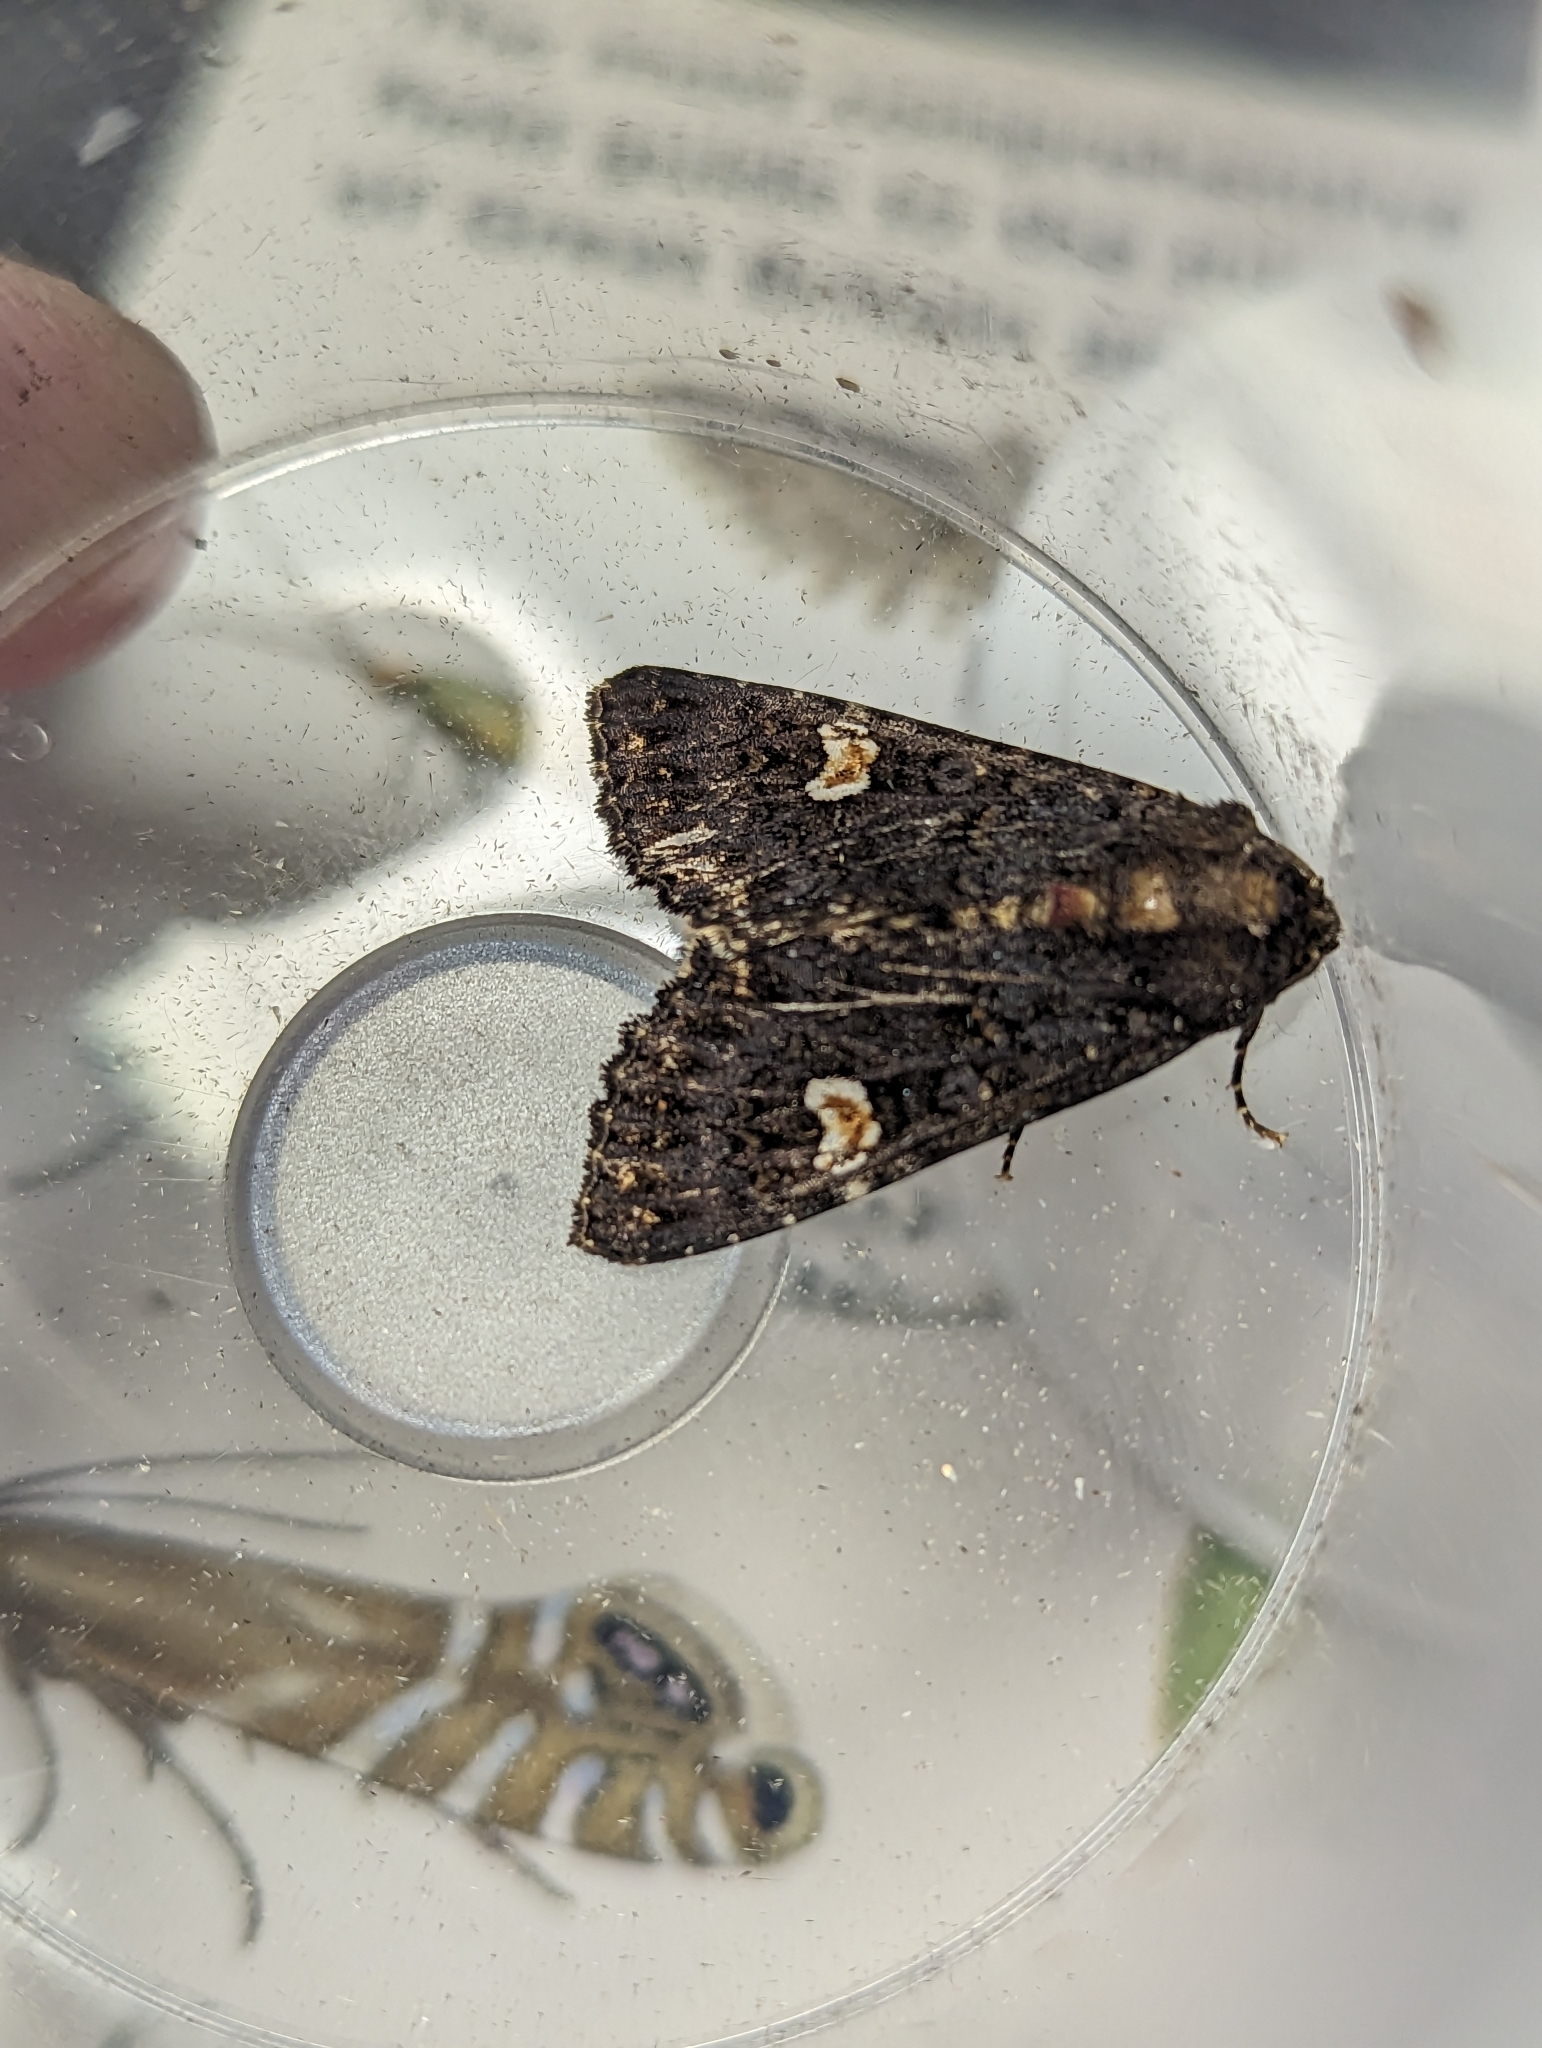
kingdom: Animalia
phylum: Arthropoda
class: Insecta
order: Lepidoptera
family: Noctuidae
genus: Melanchra
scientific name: Melanchra persicariae
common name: Dot moth
